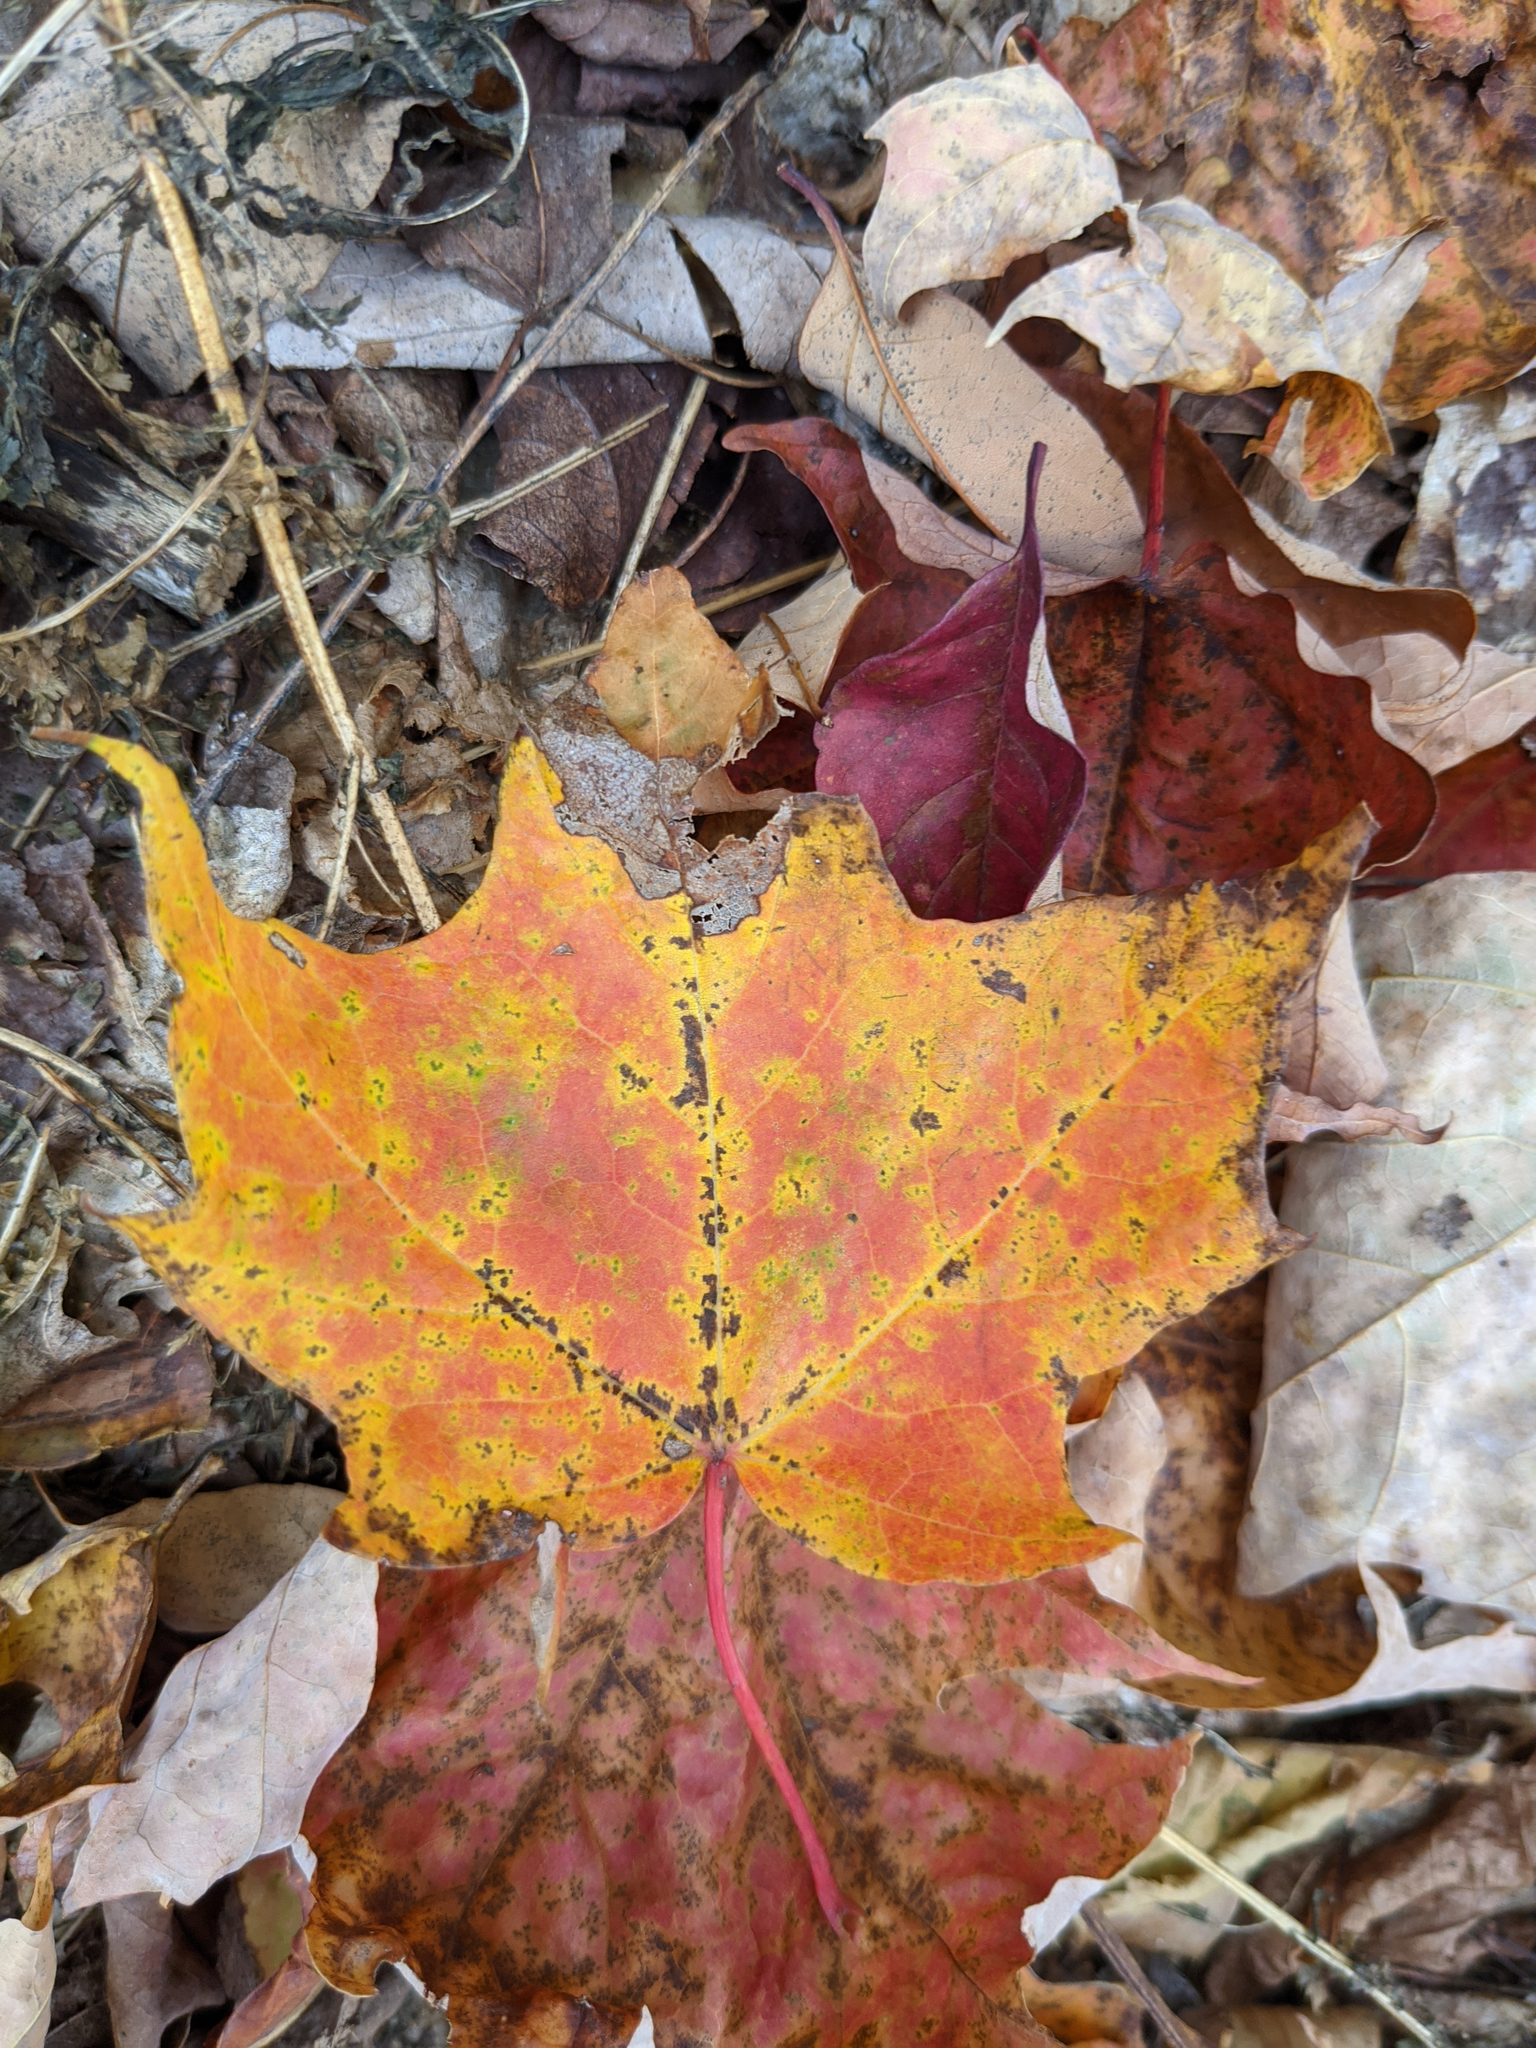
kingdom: Plantae
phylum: Tracheophyta
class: Magnoliopsida
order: Sapindales
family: Sapindaceae
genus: Acer
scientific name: Acer saccharum
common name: Sugar maple
